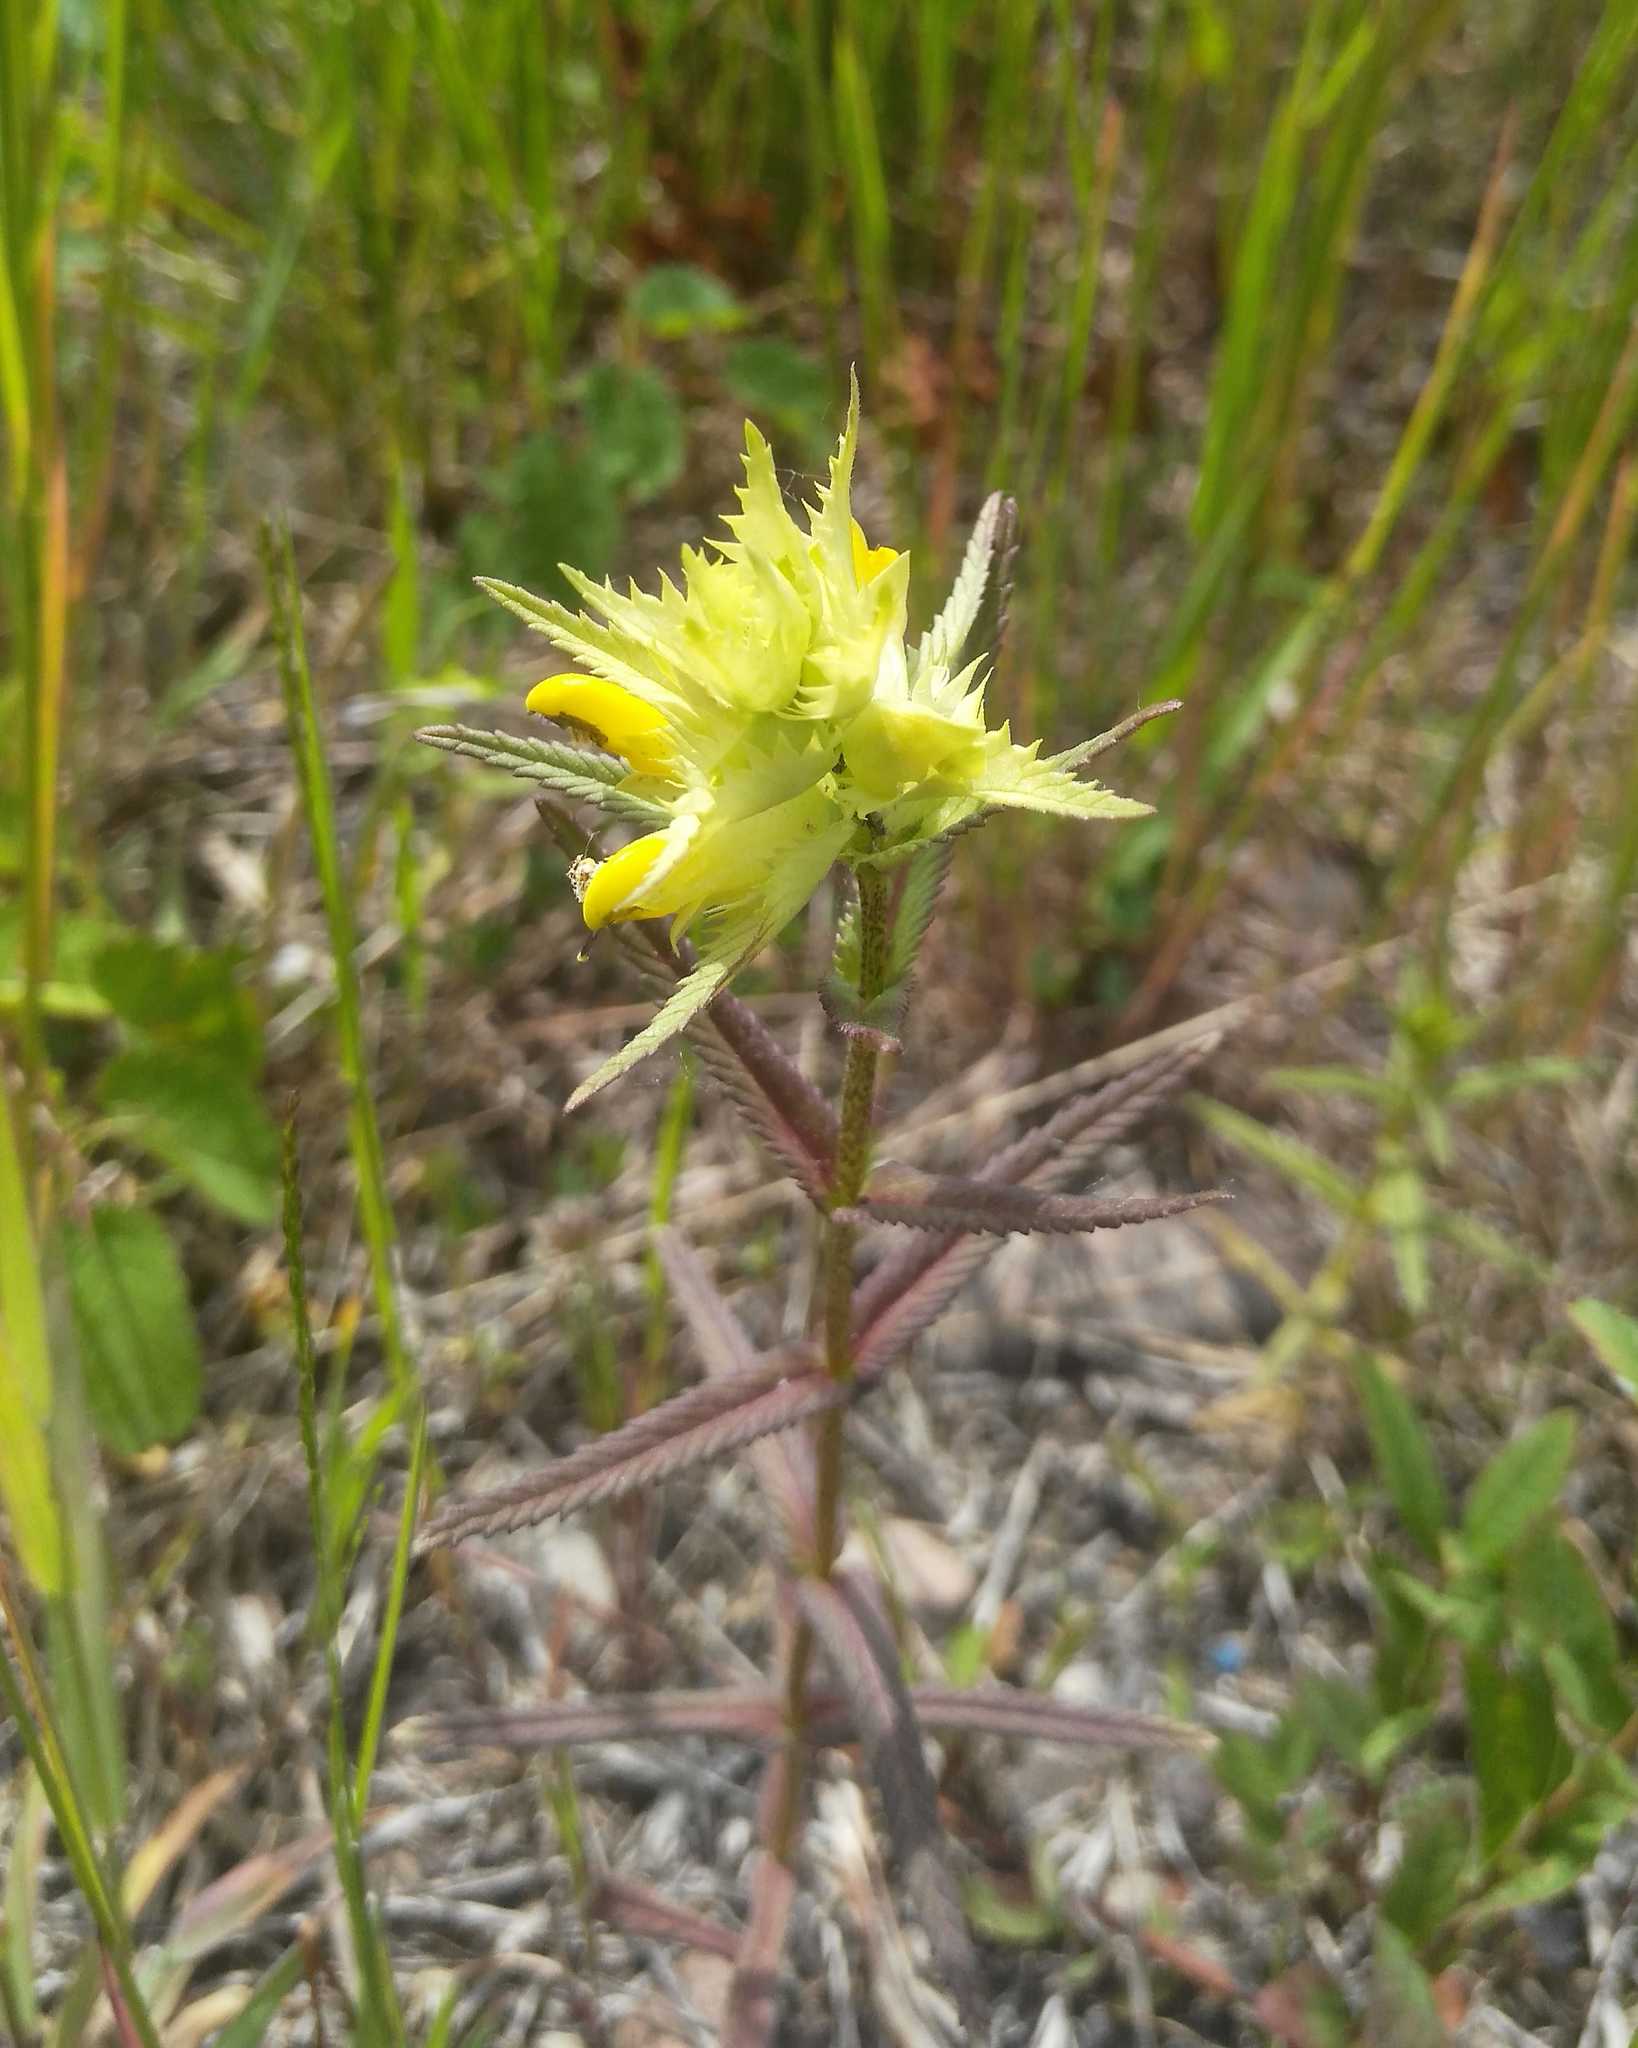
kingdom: Plantae
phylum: Tracheophyta
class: Magnoliopsida
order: Lamiales
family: Orobanchaceae
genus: Rhinanthus
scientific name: Rhinanthus serotinus
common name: Late-flowering yellow rattle
